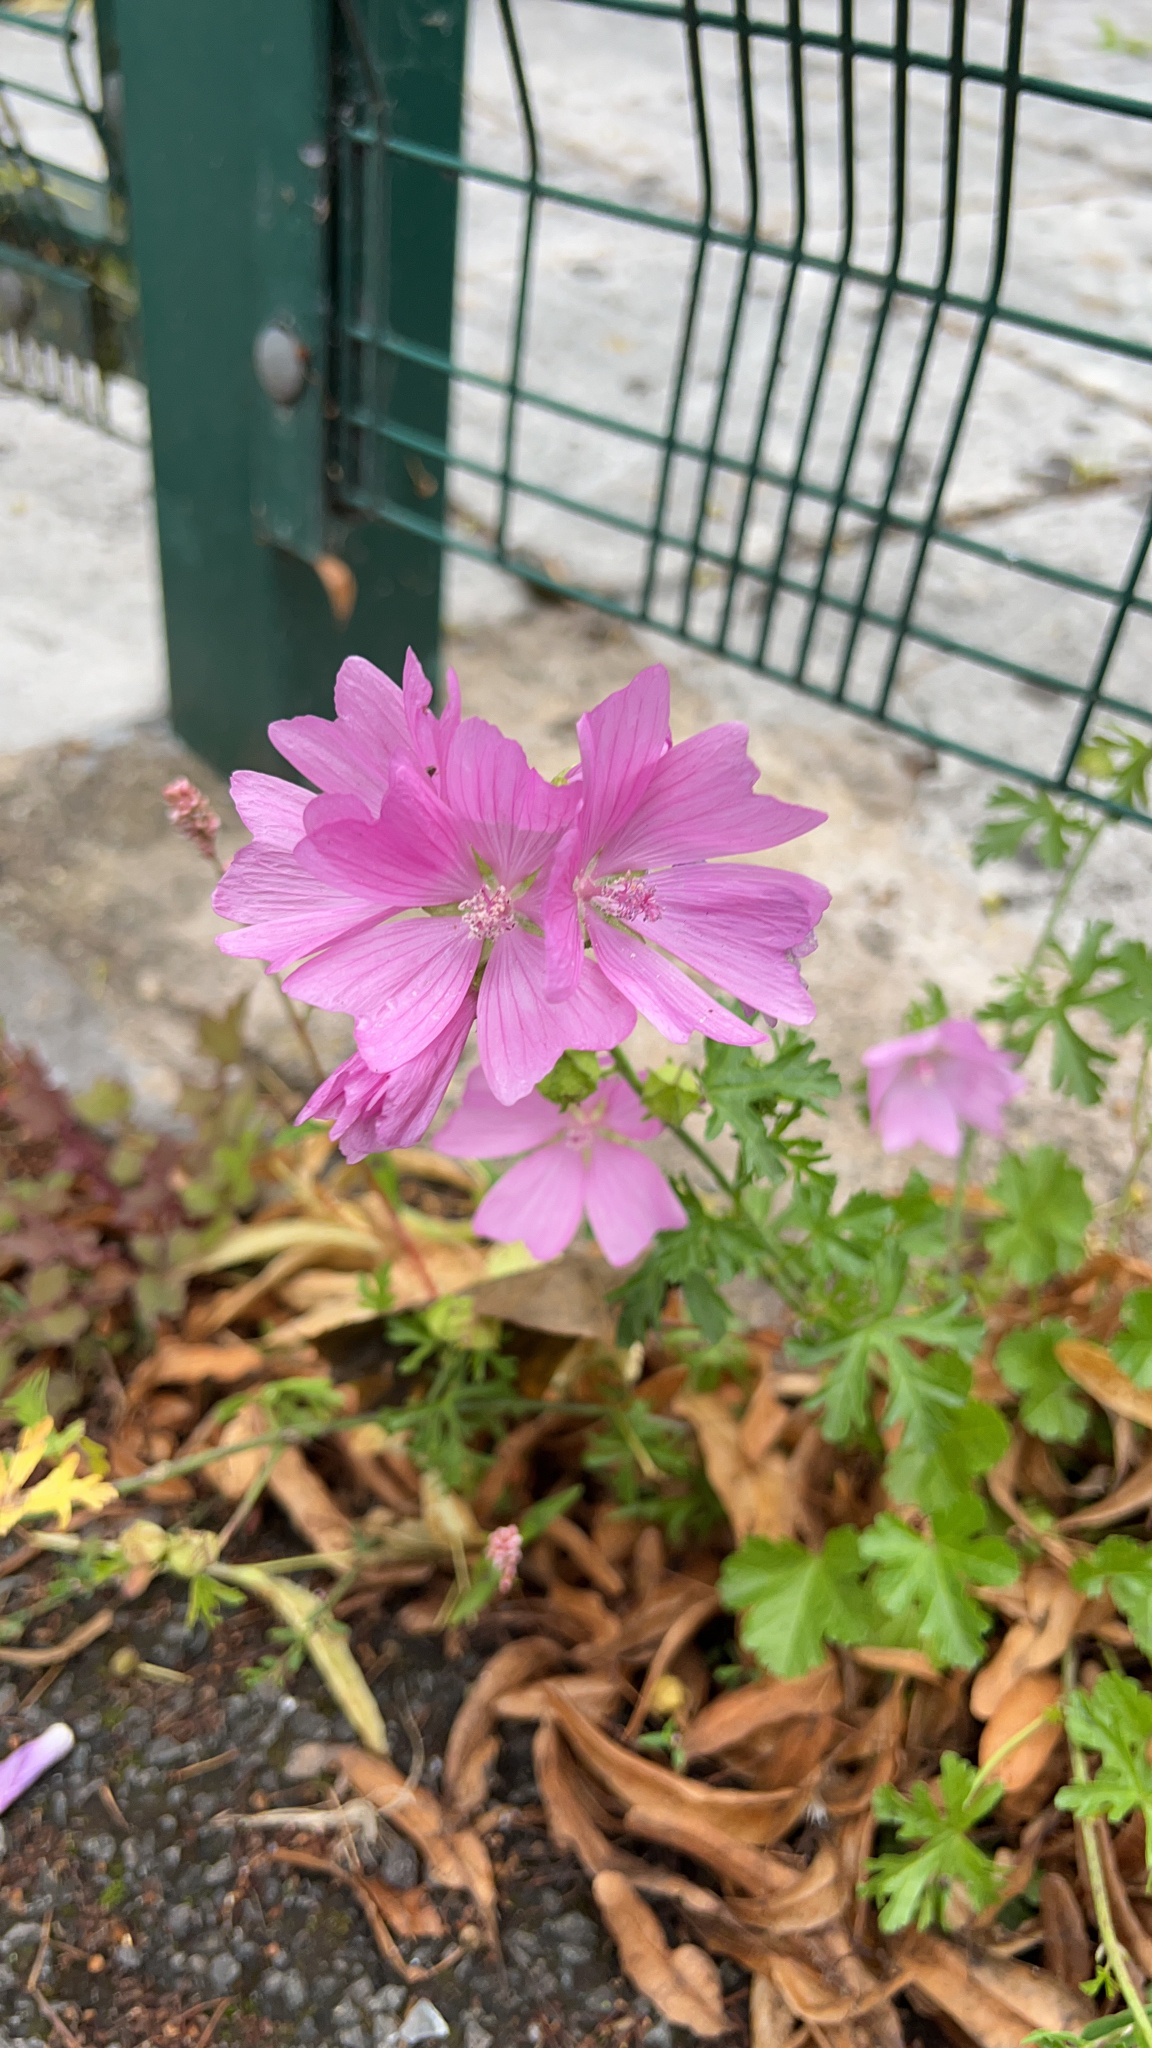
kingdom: Plantae
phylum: Tracheophyta
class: Magnoliopsida
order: Malvales
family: Malvaceae
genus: Malva
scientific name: Malva moschata
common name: Musk mallow
